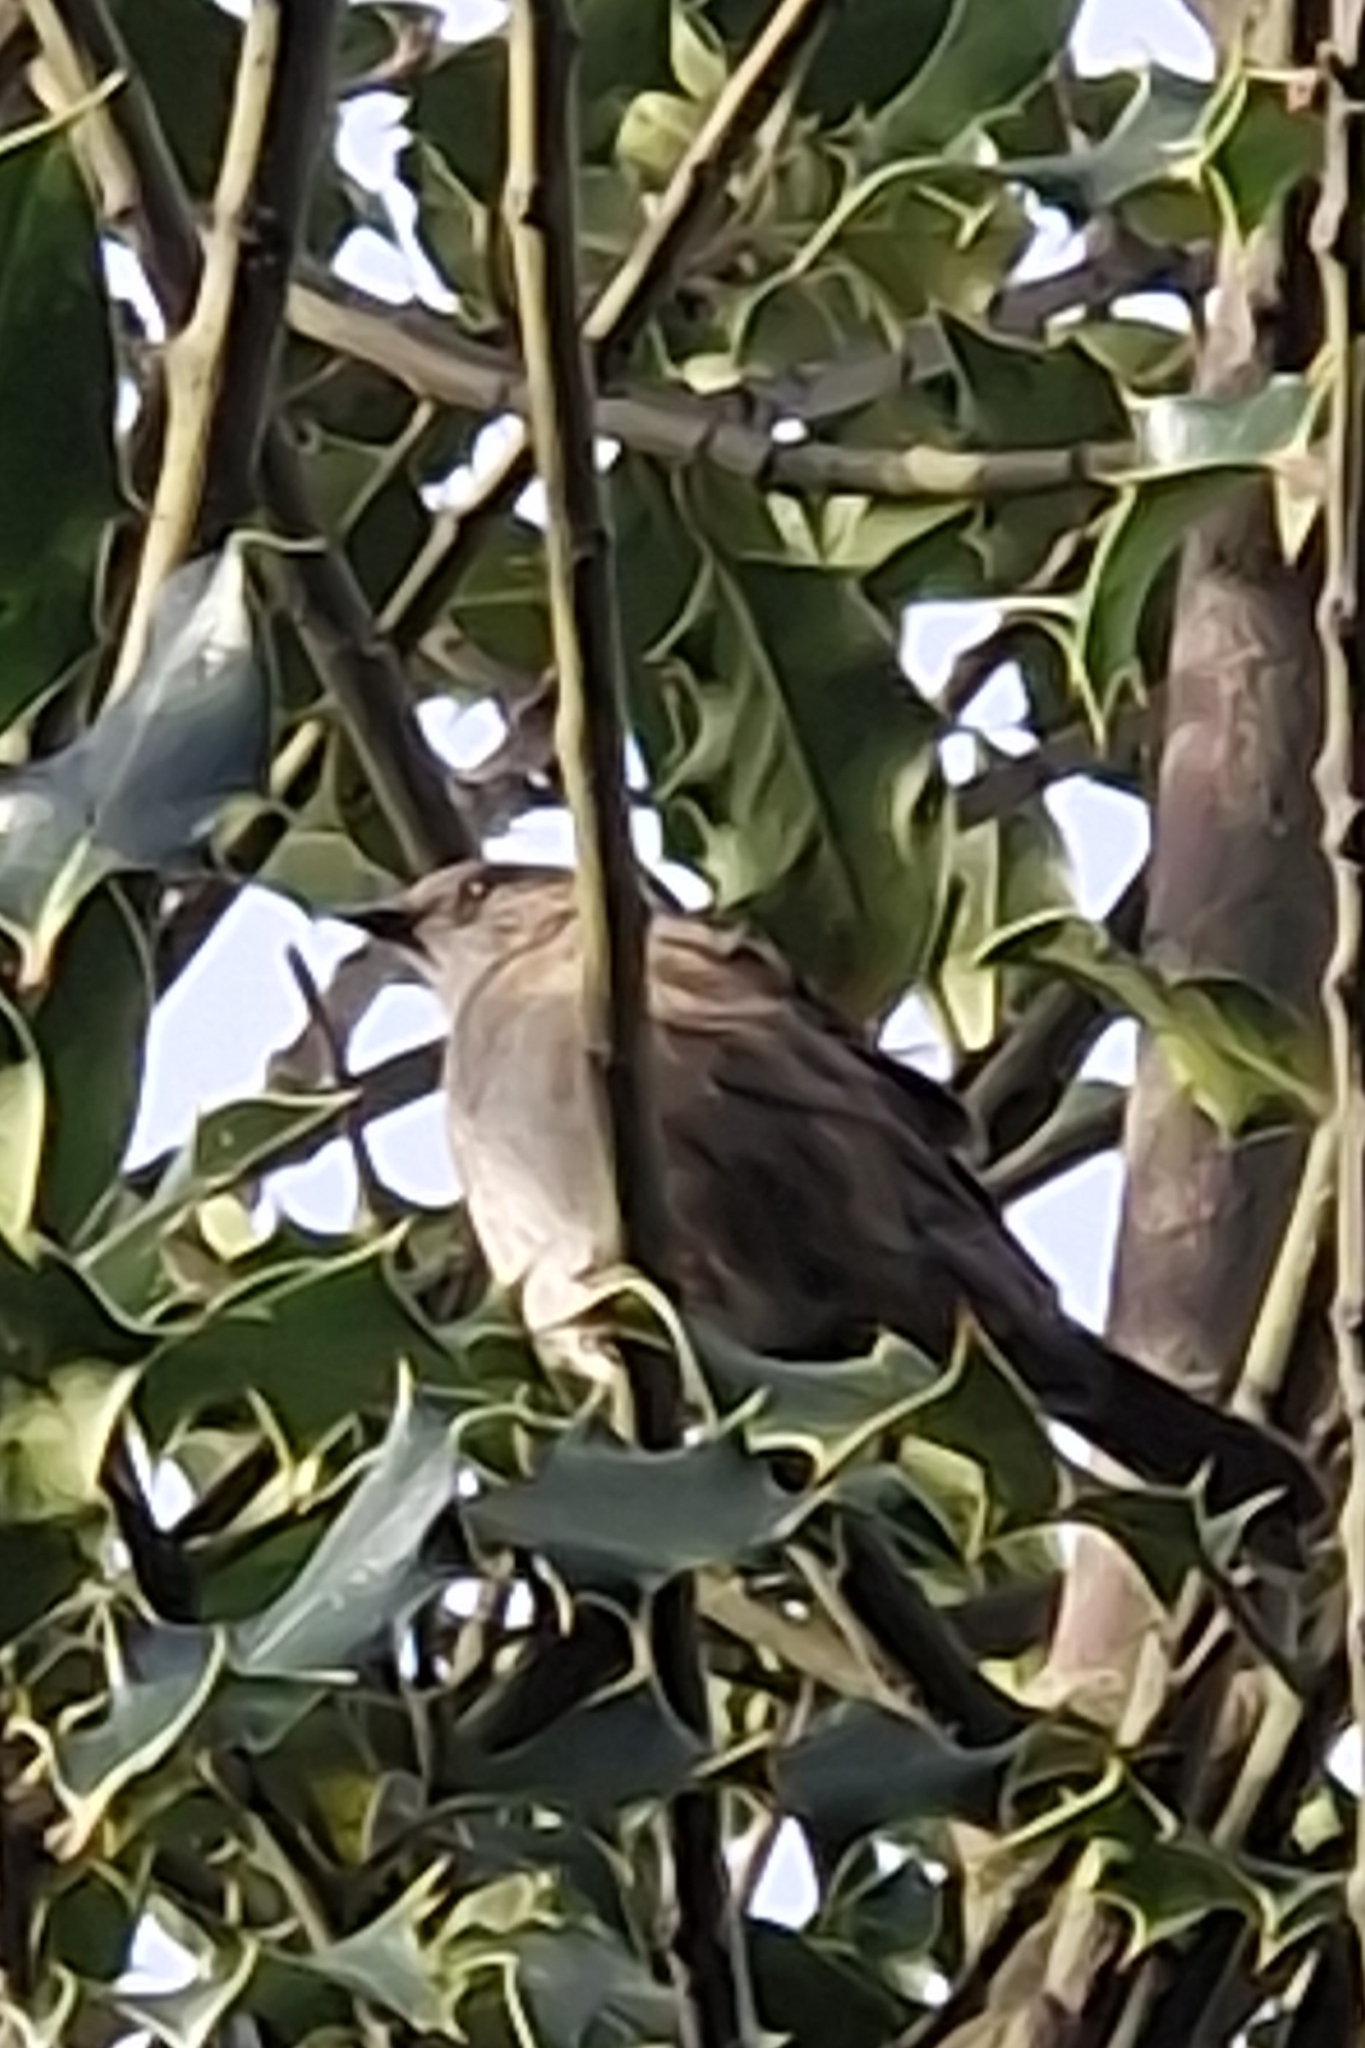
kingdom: Animalia
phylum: Chordata
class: Aves
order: Passeriformes
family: Prunellidae
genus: Prunella
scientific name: Prunella modularis
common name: Dunnock
